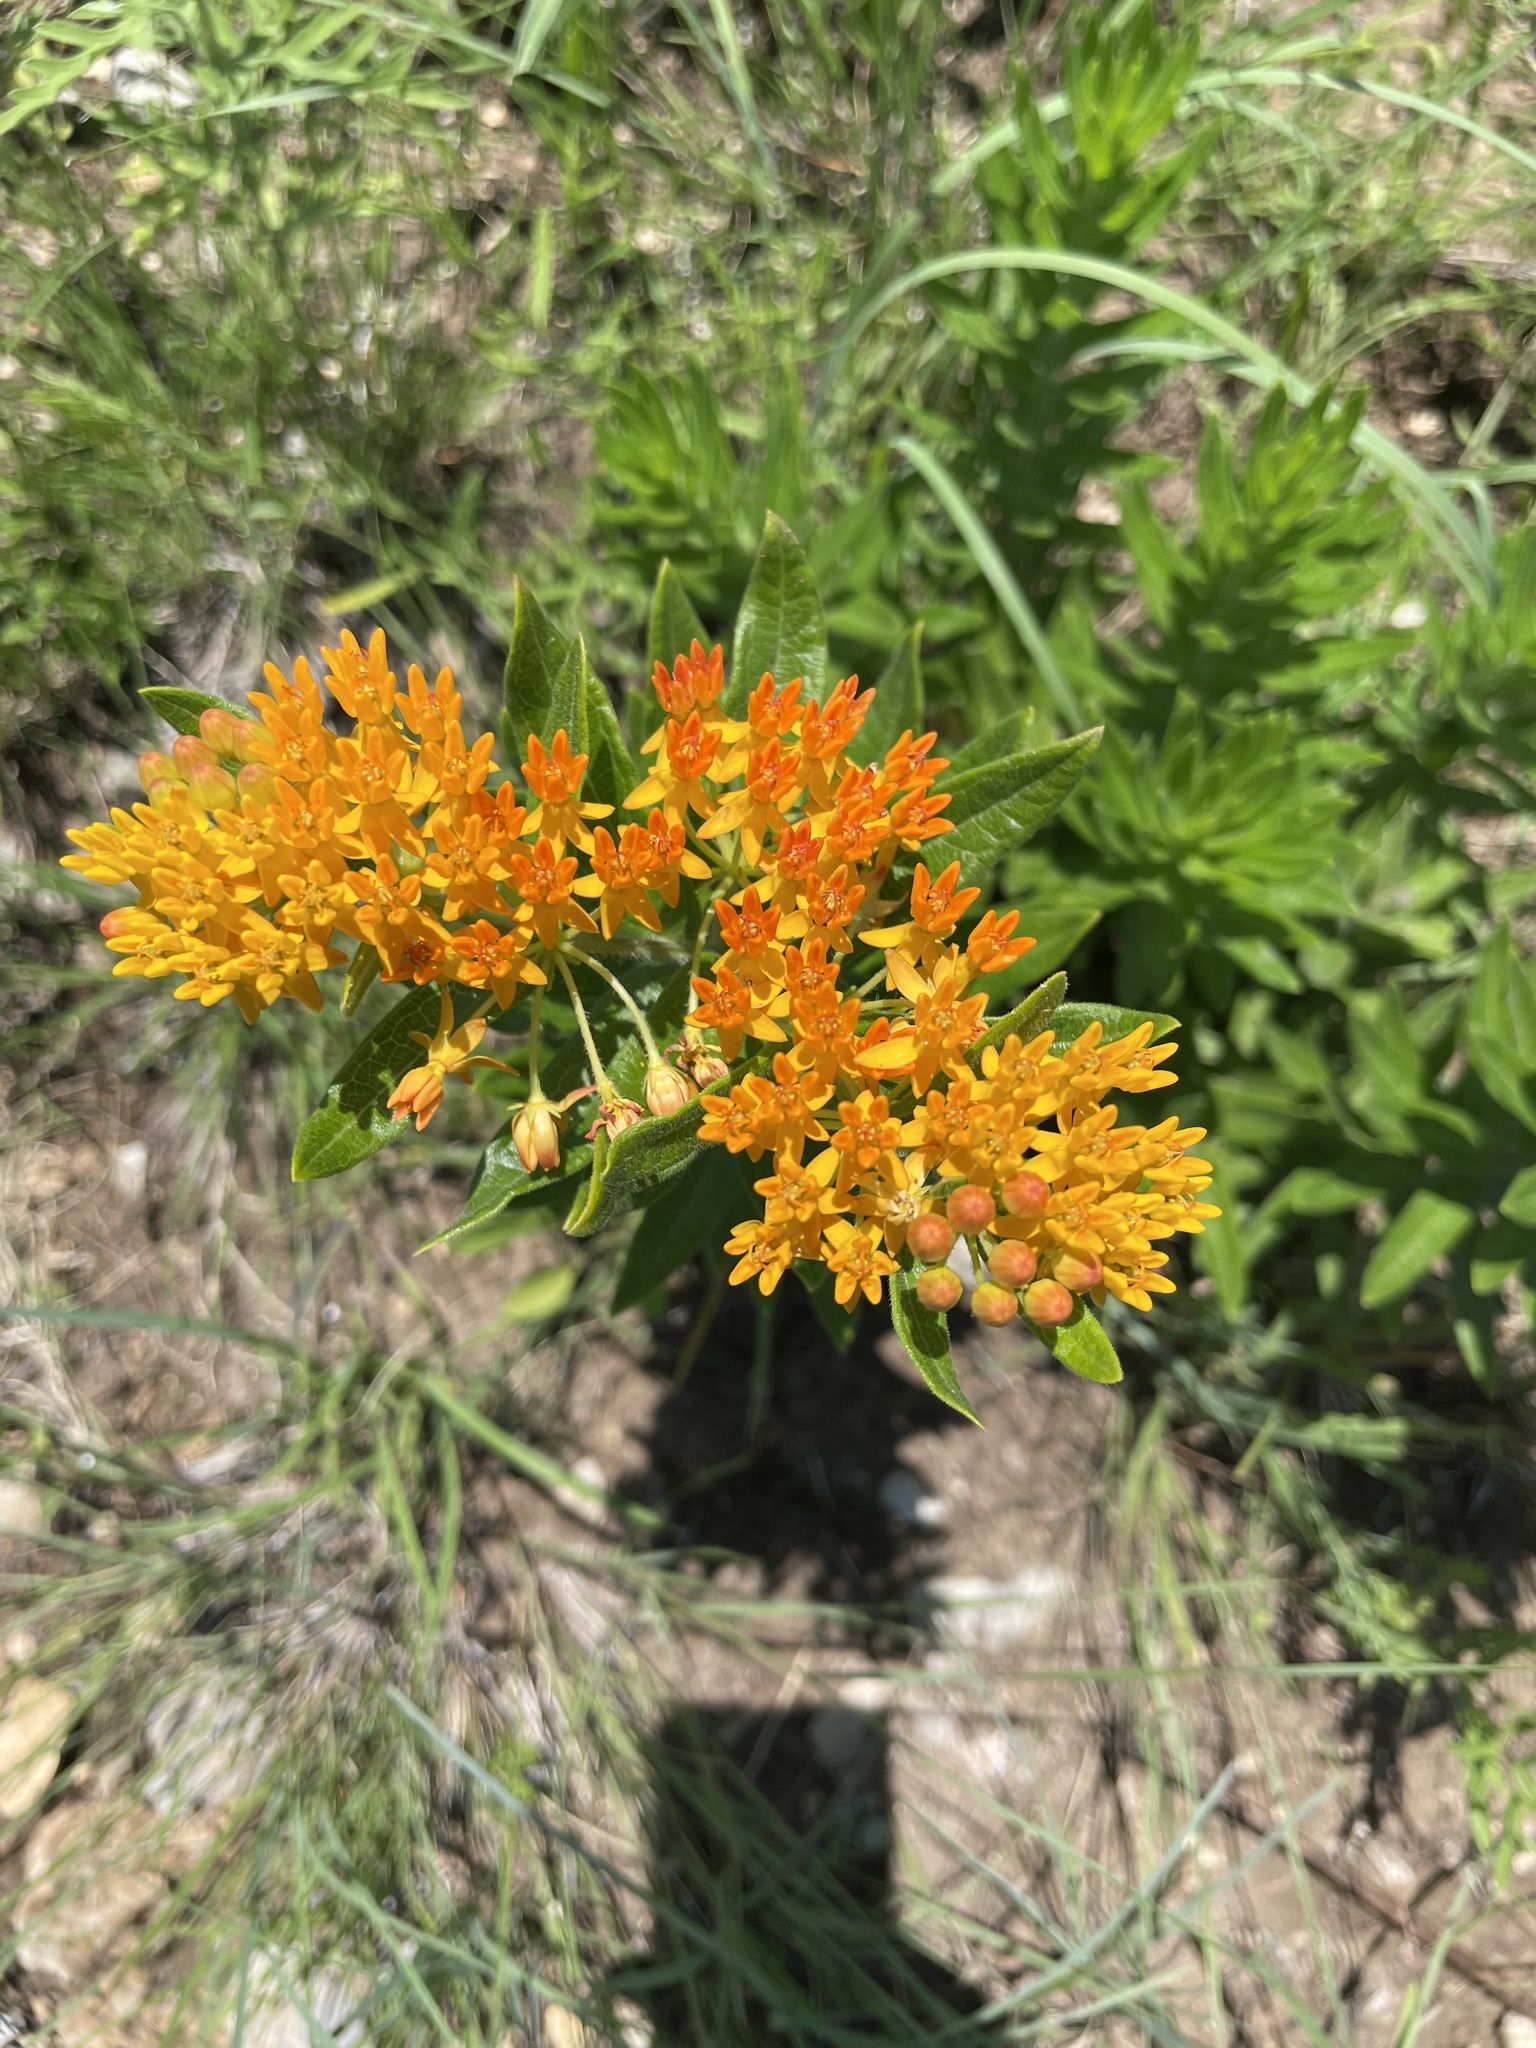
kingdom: Plantae
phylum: Tracheophyta
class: Magnoliopsida
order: Gentianales
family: Apocynaceae
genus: Asclepias
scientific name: Asclepias tuberosa
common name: Butterfly milkweed
